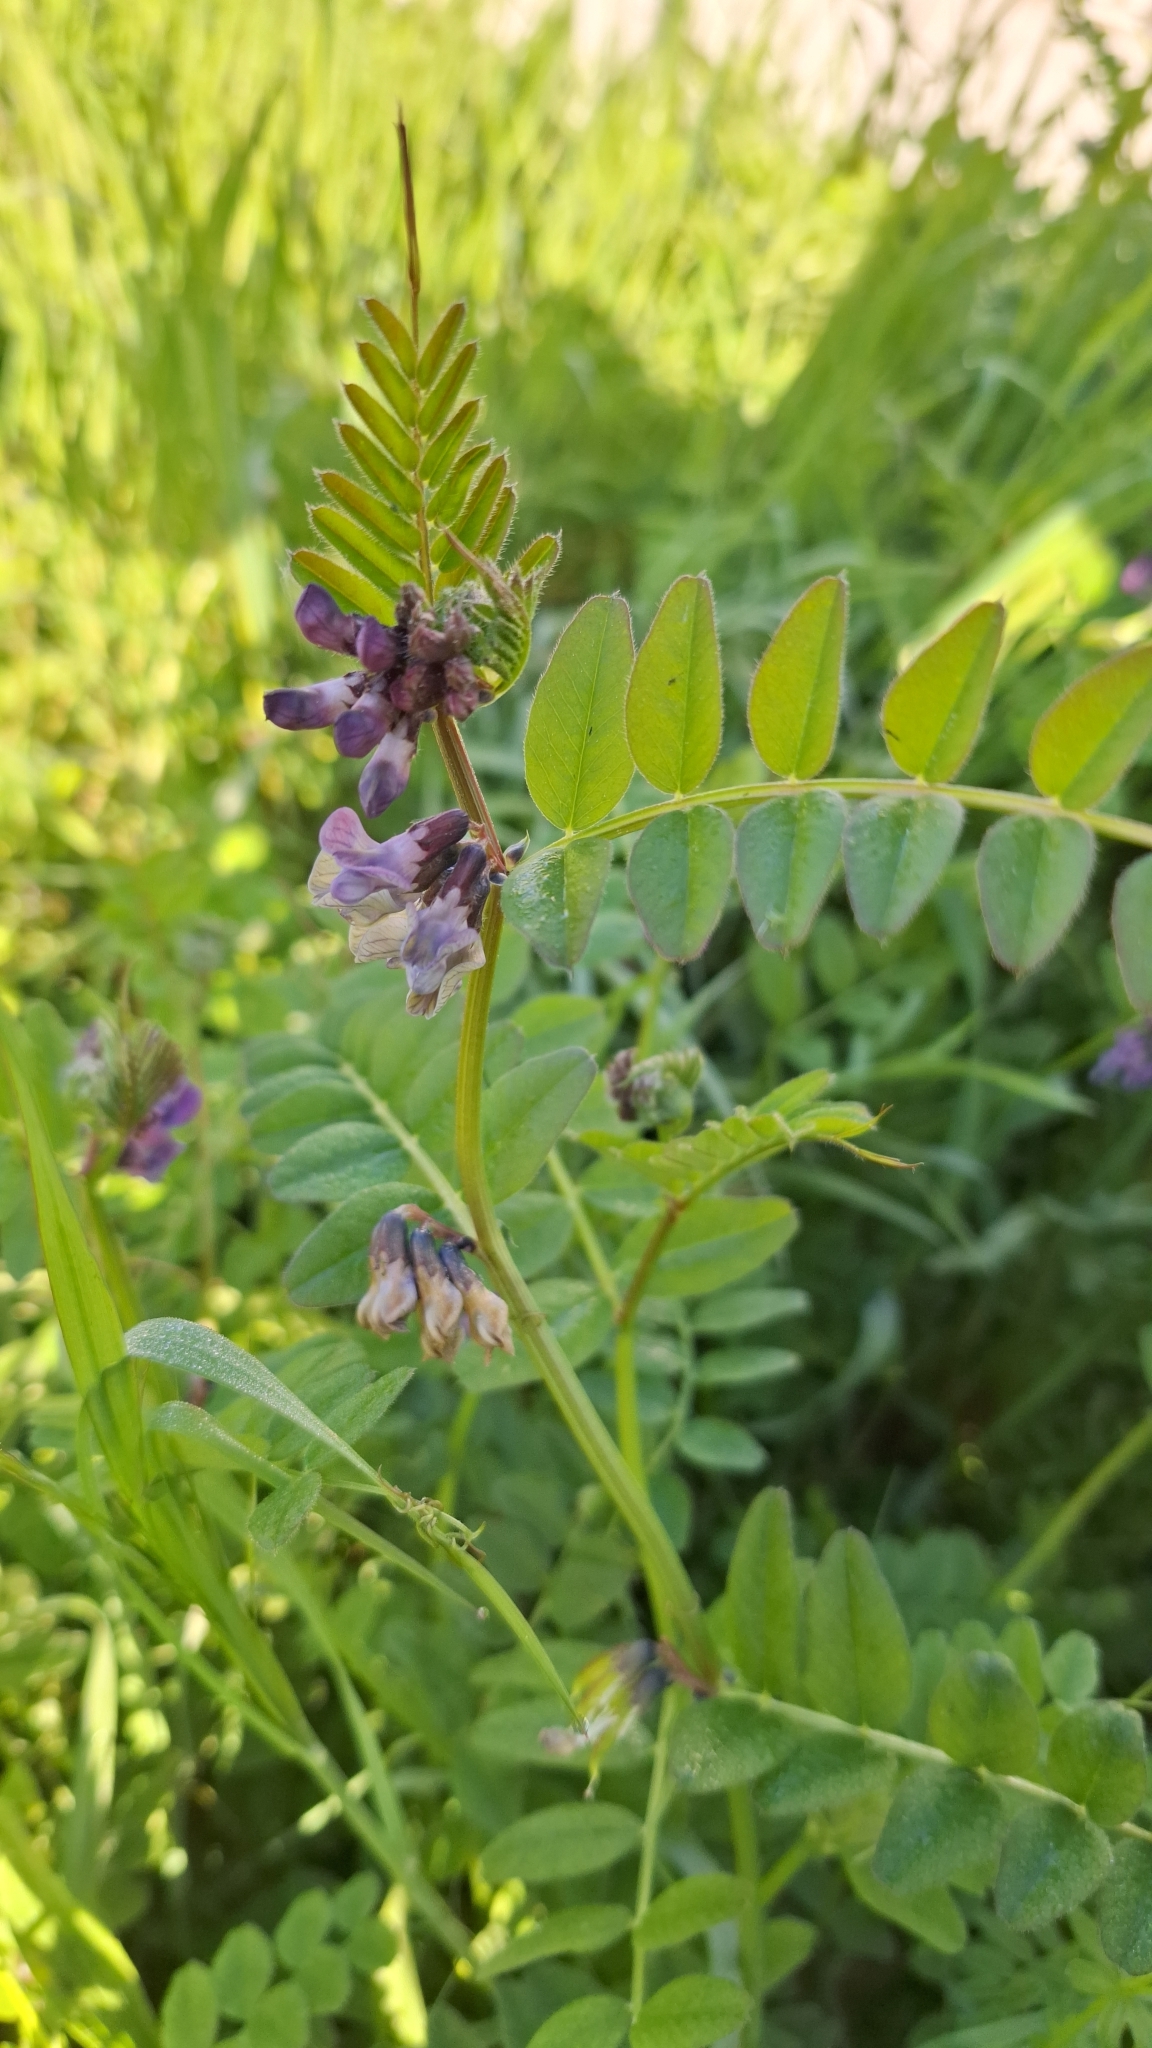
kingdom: Plantae
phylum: Tracheophyta
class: Magnoliopsida
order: Fabales
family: Fabaceae
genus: Vicia
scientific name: Vicia sepium
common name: Bush vetch
